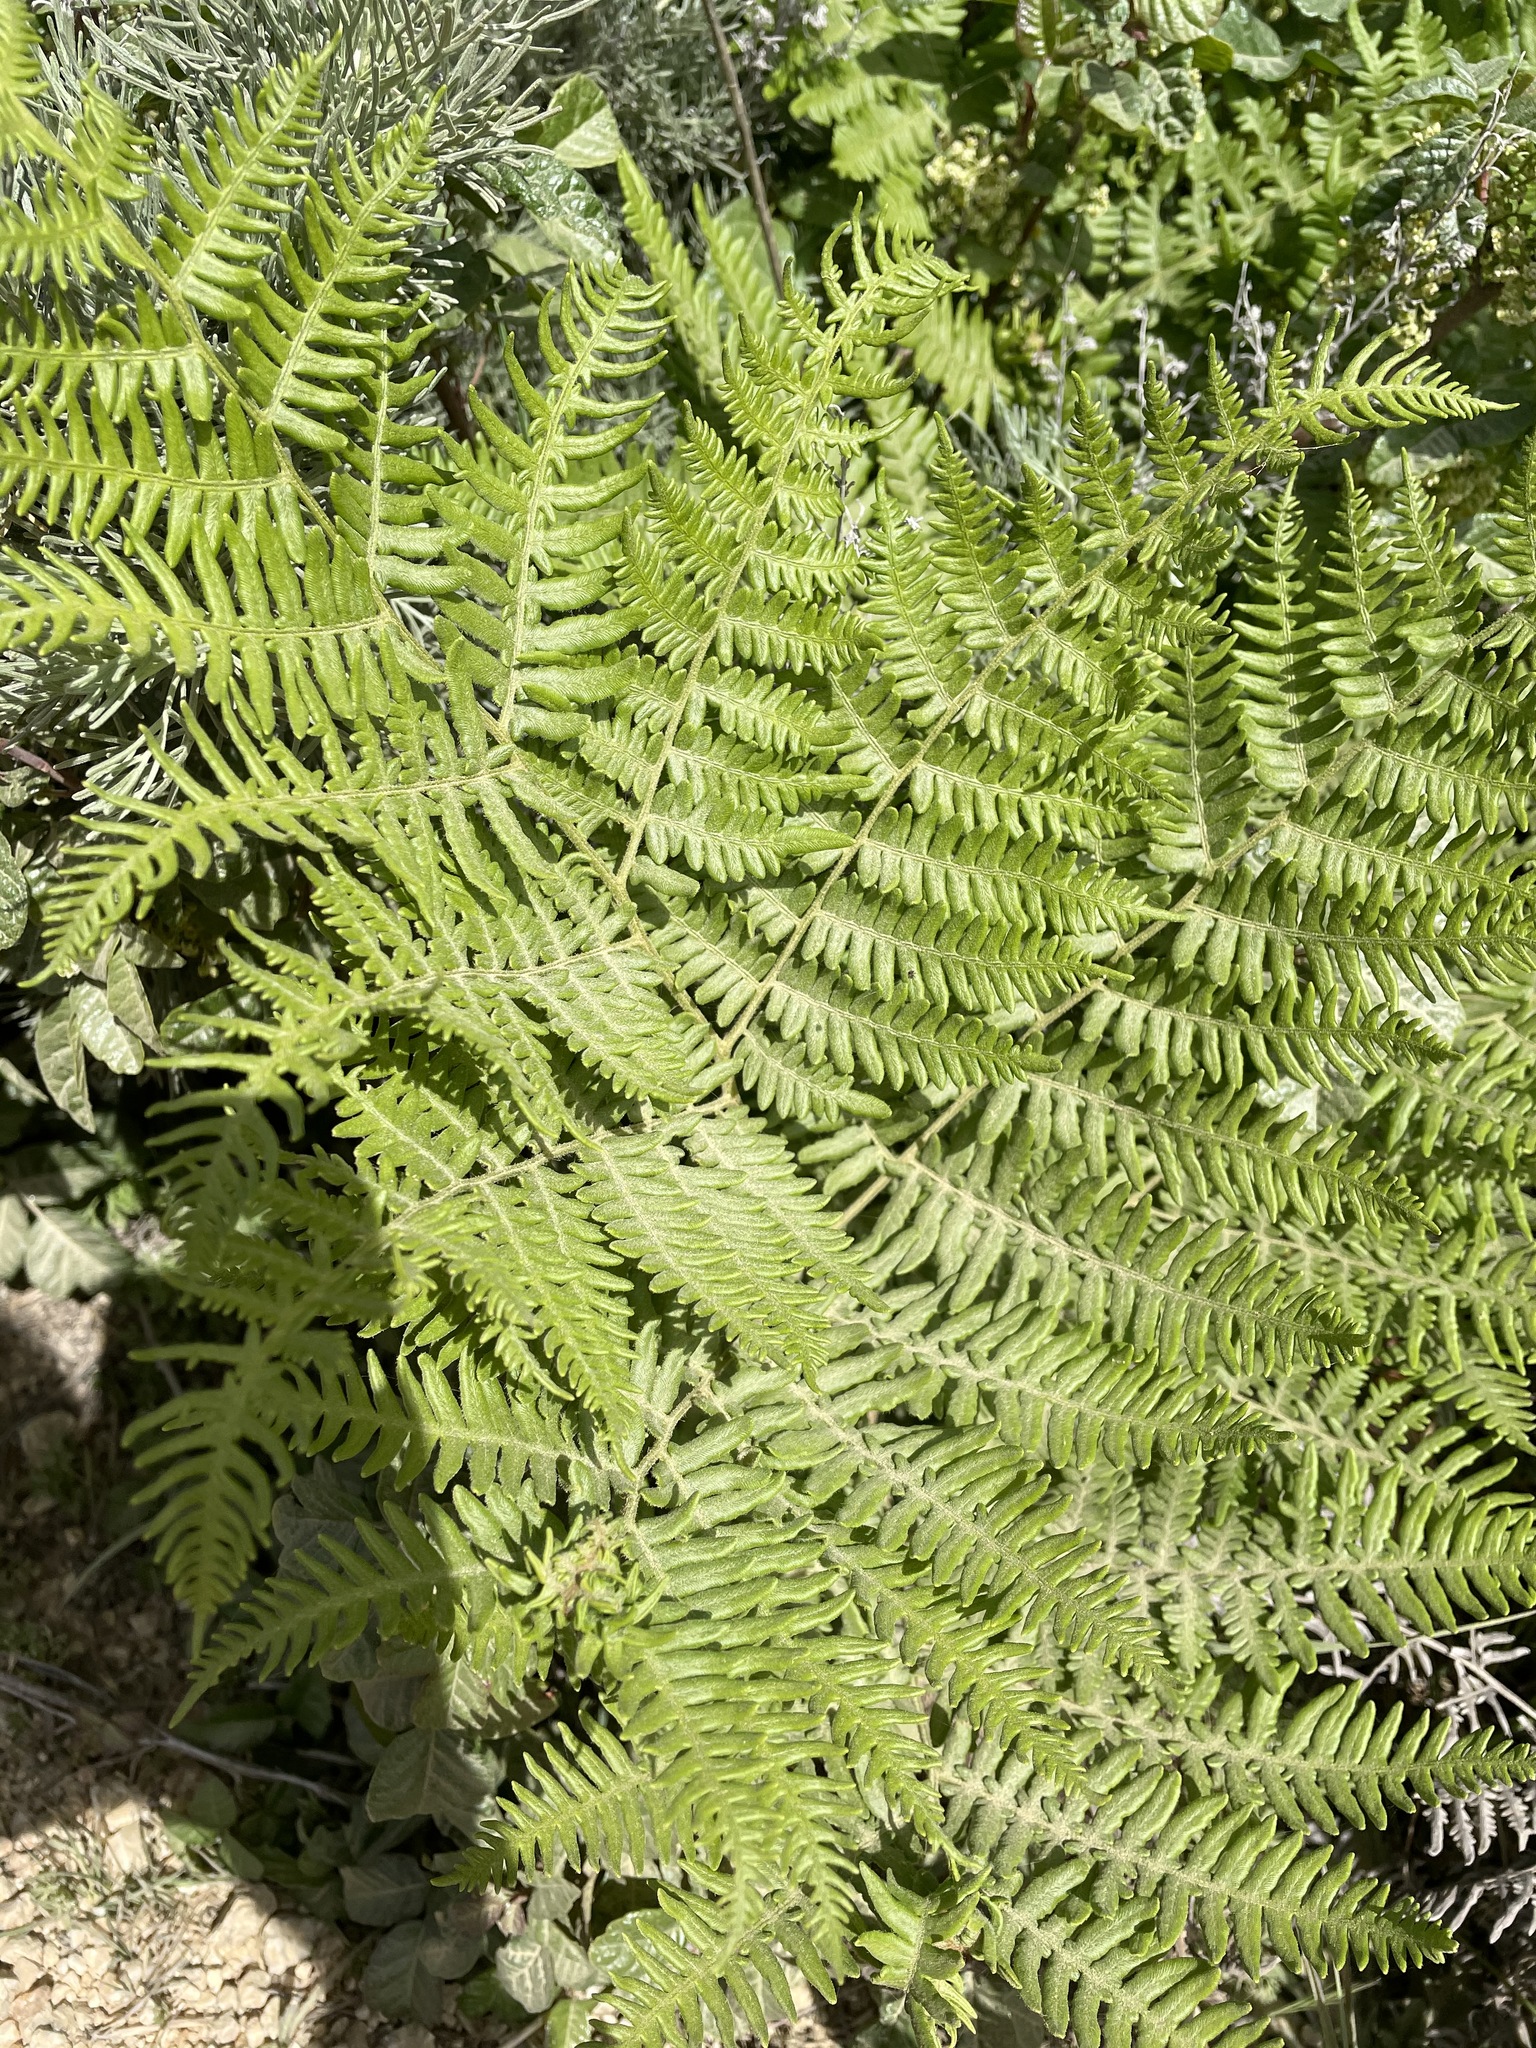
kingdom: Plantae
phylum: Tracheophyta
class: Polypodiopsida
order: Polypodiales
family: Dennstaedtiaceae
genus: Pteridium
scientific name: Pteridium aquilinum
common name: Bracken
